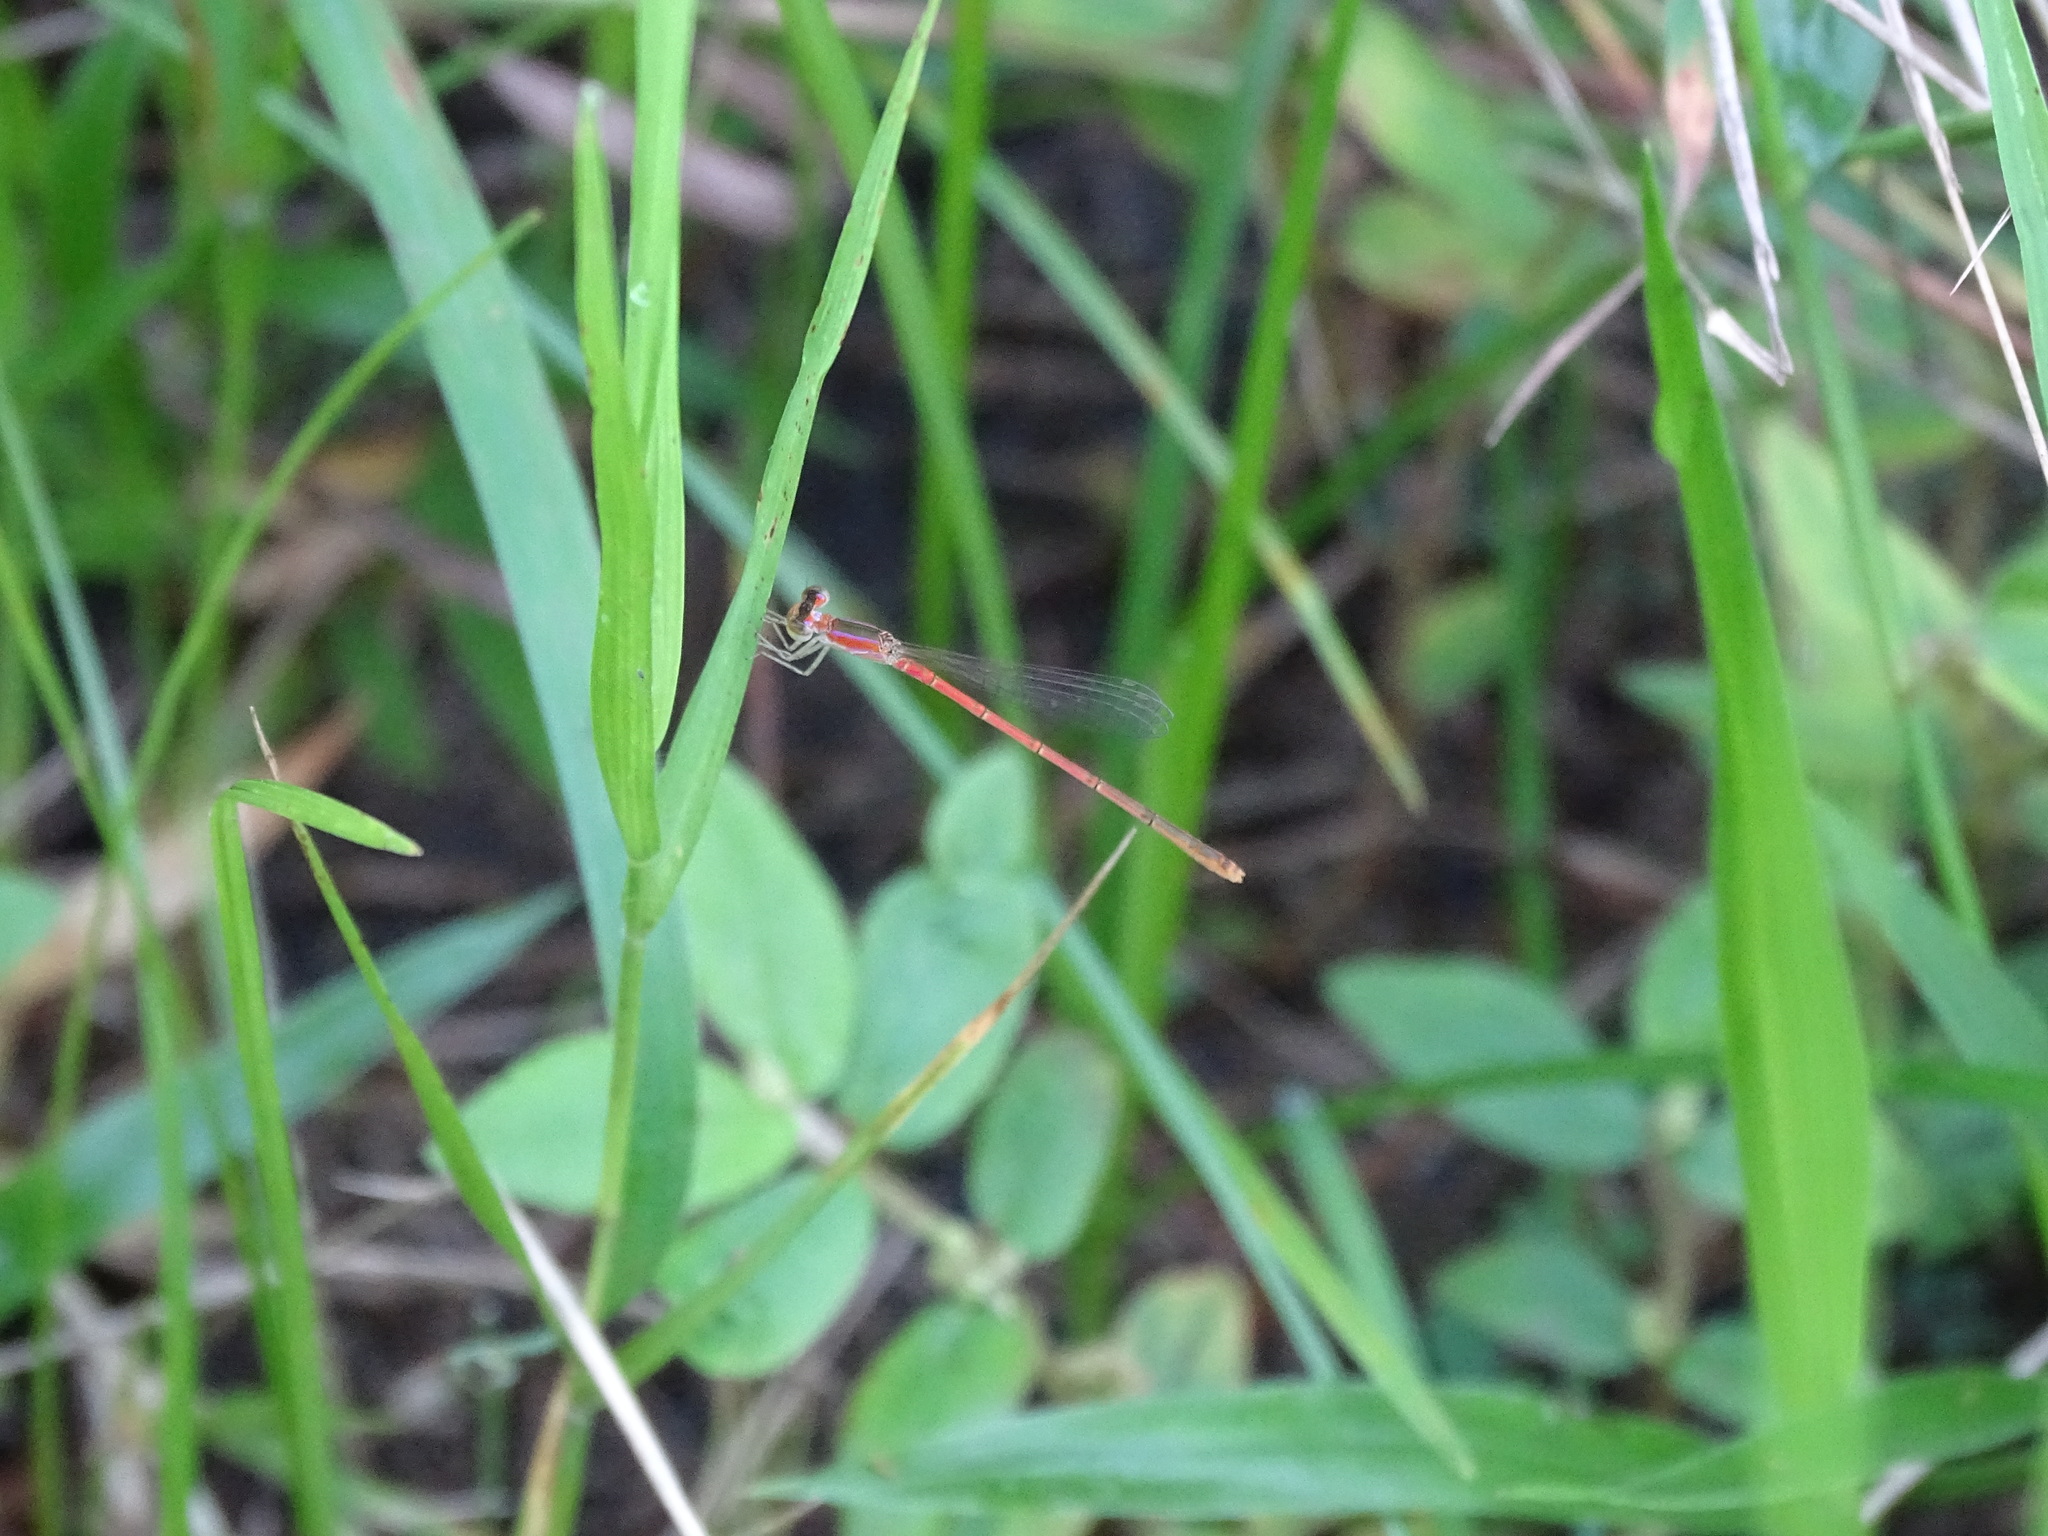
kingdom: Animalia
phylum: Arthropoda
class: Insecta
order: Odonata
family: Coenagrionidae
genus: Agriocnemis
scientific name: Agriocnemis pygmaea
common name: Pygmy wisp
